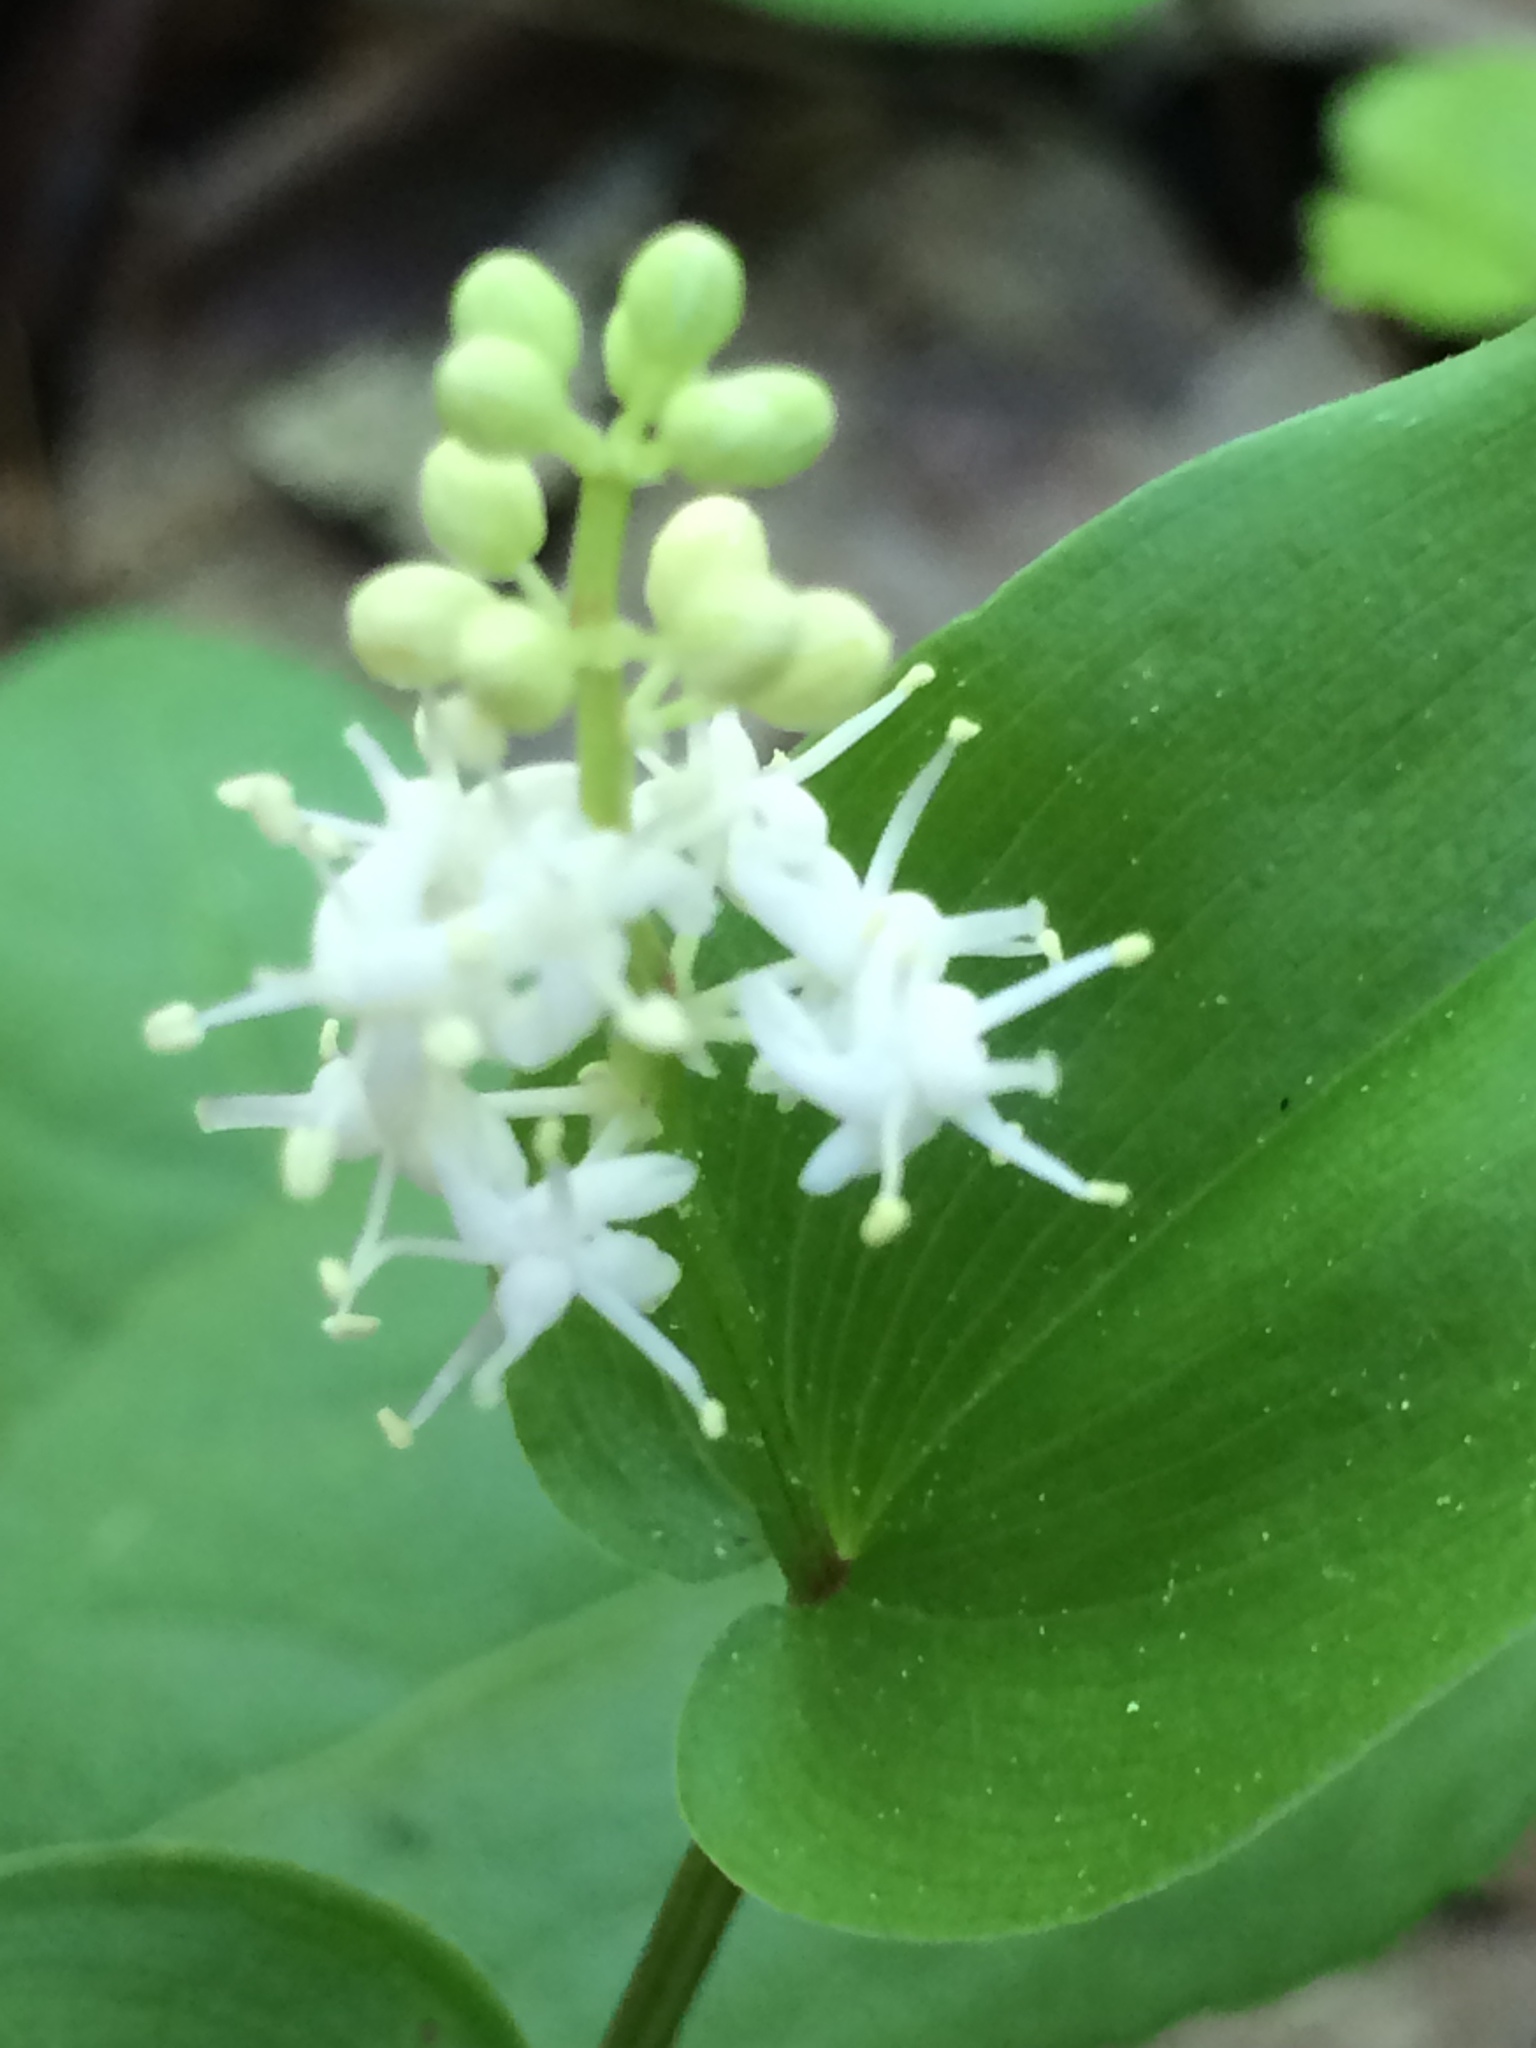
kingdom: Plantae
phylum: Tracheophyta
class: Liliopsida
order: Asparagales
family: Asparagaceae
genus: Maianthemum
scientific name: Maianthemum canadense
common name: False lily-of-the-valley
